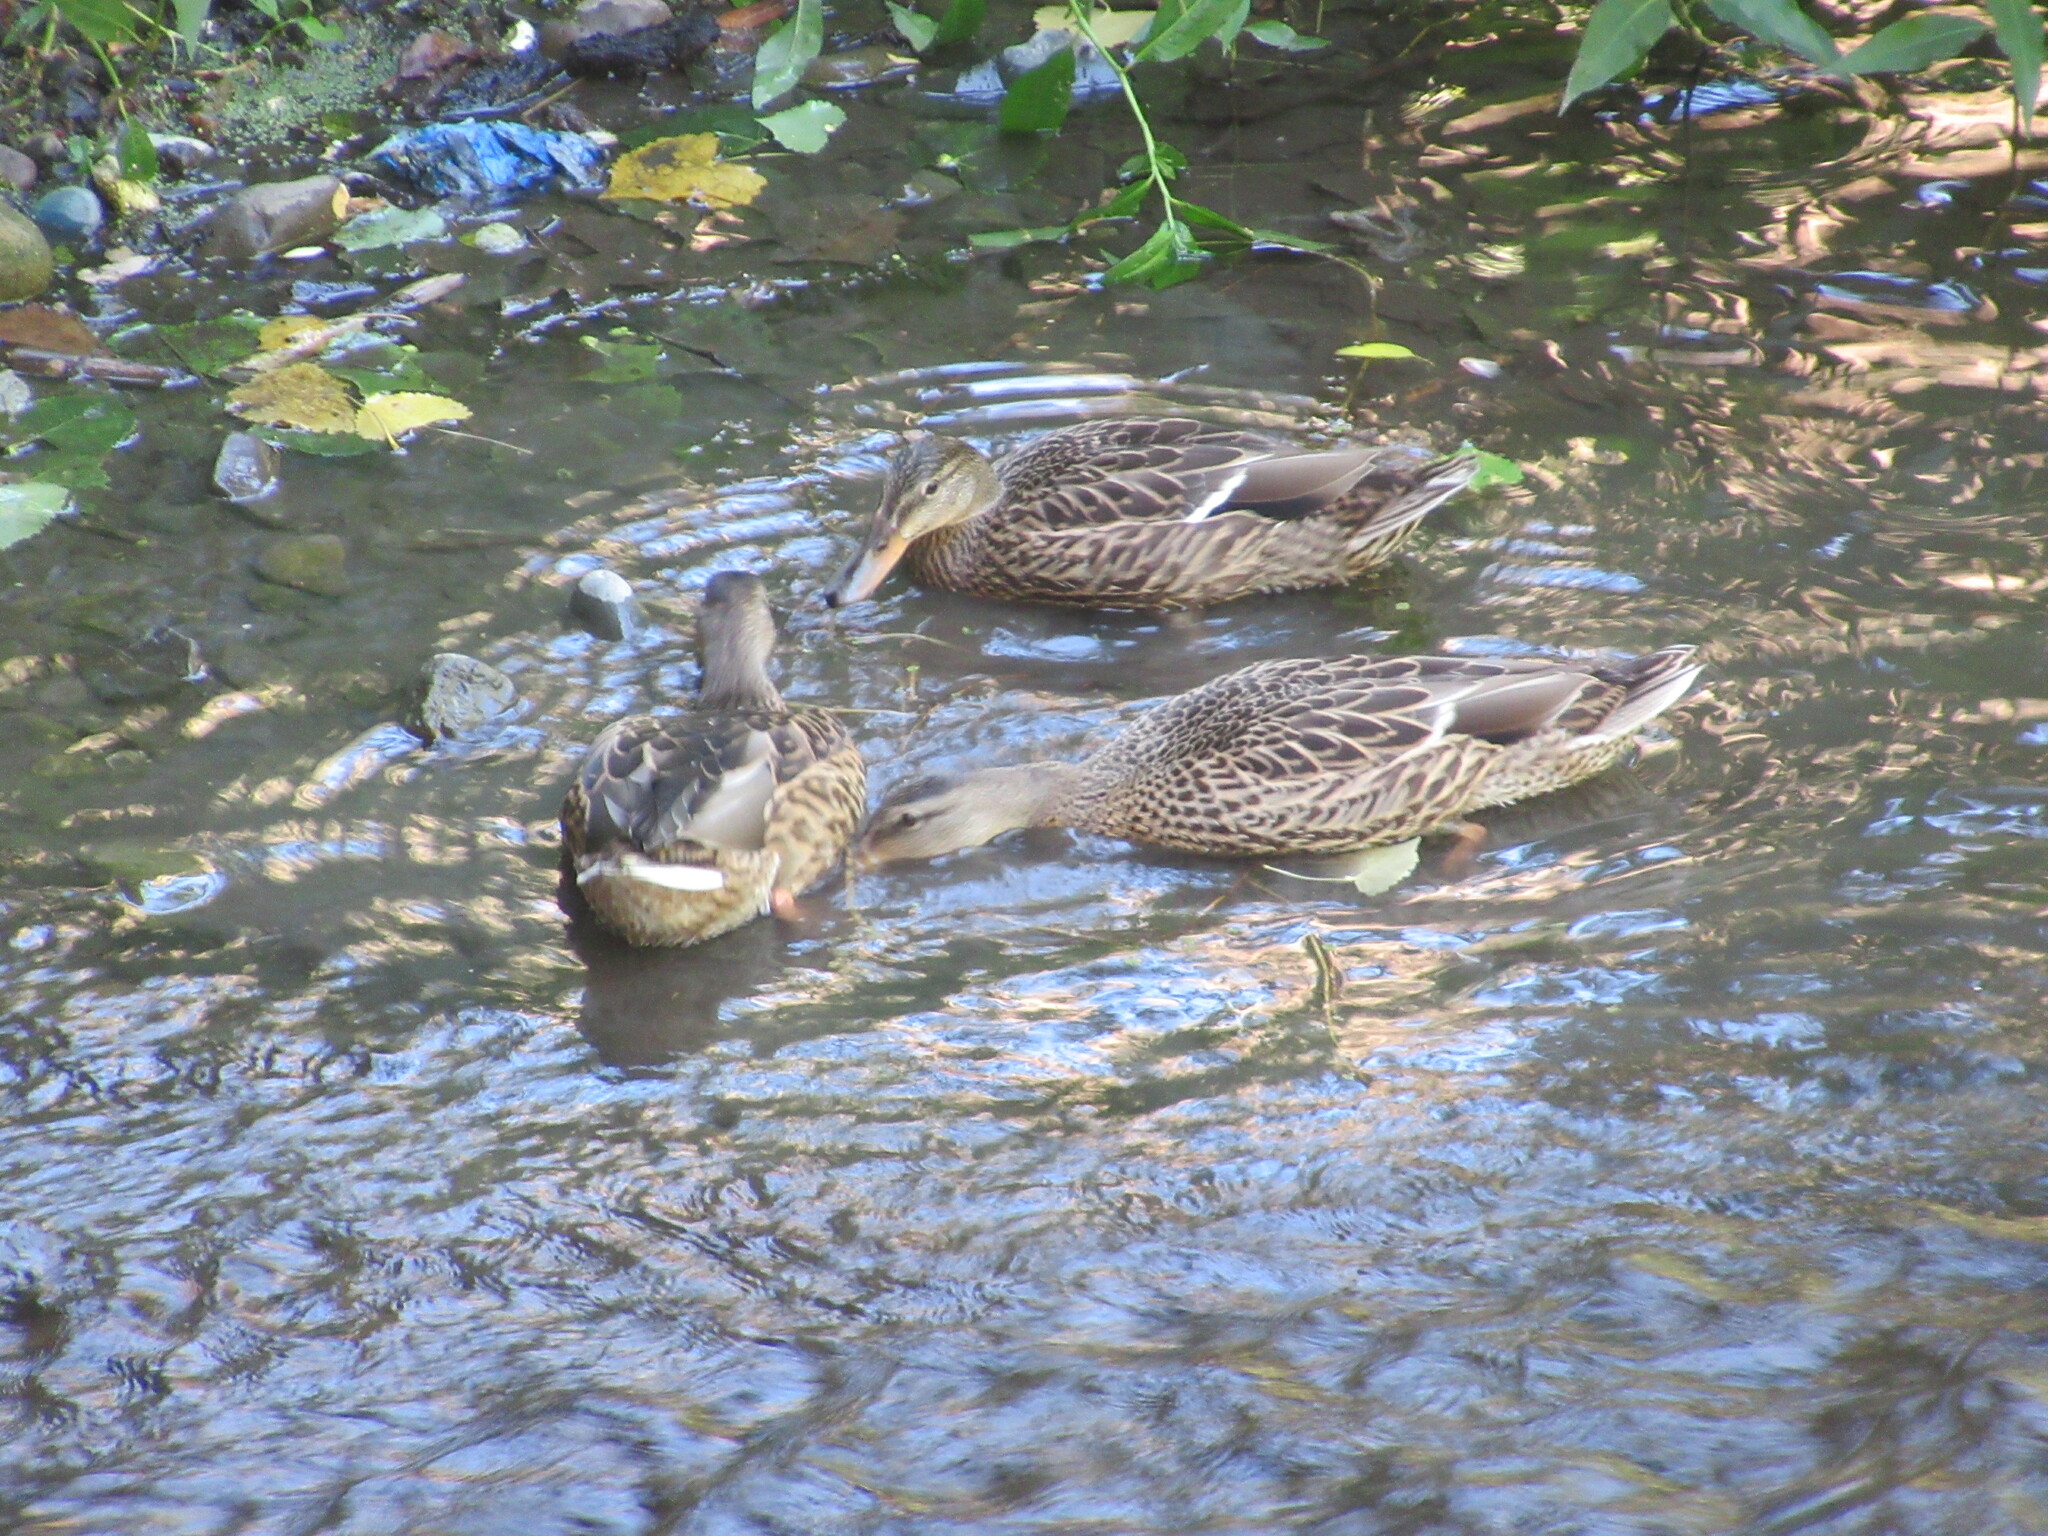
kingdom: Animalia
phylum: Chordata
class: Aves
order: Anseriformes
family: Anatidae
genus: Anas
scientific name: Anas platyrhynchos
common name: Mallard
